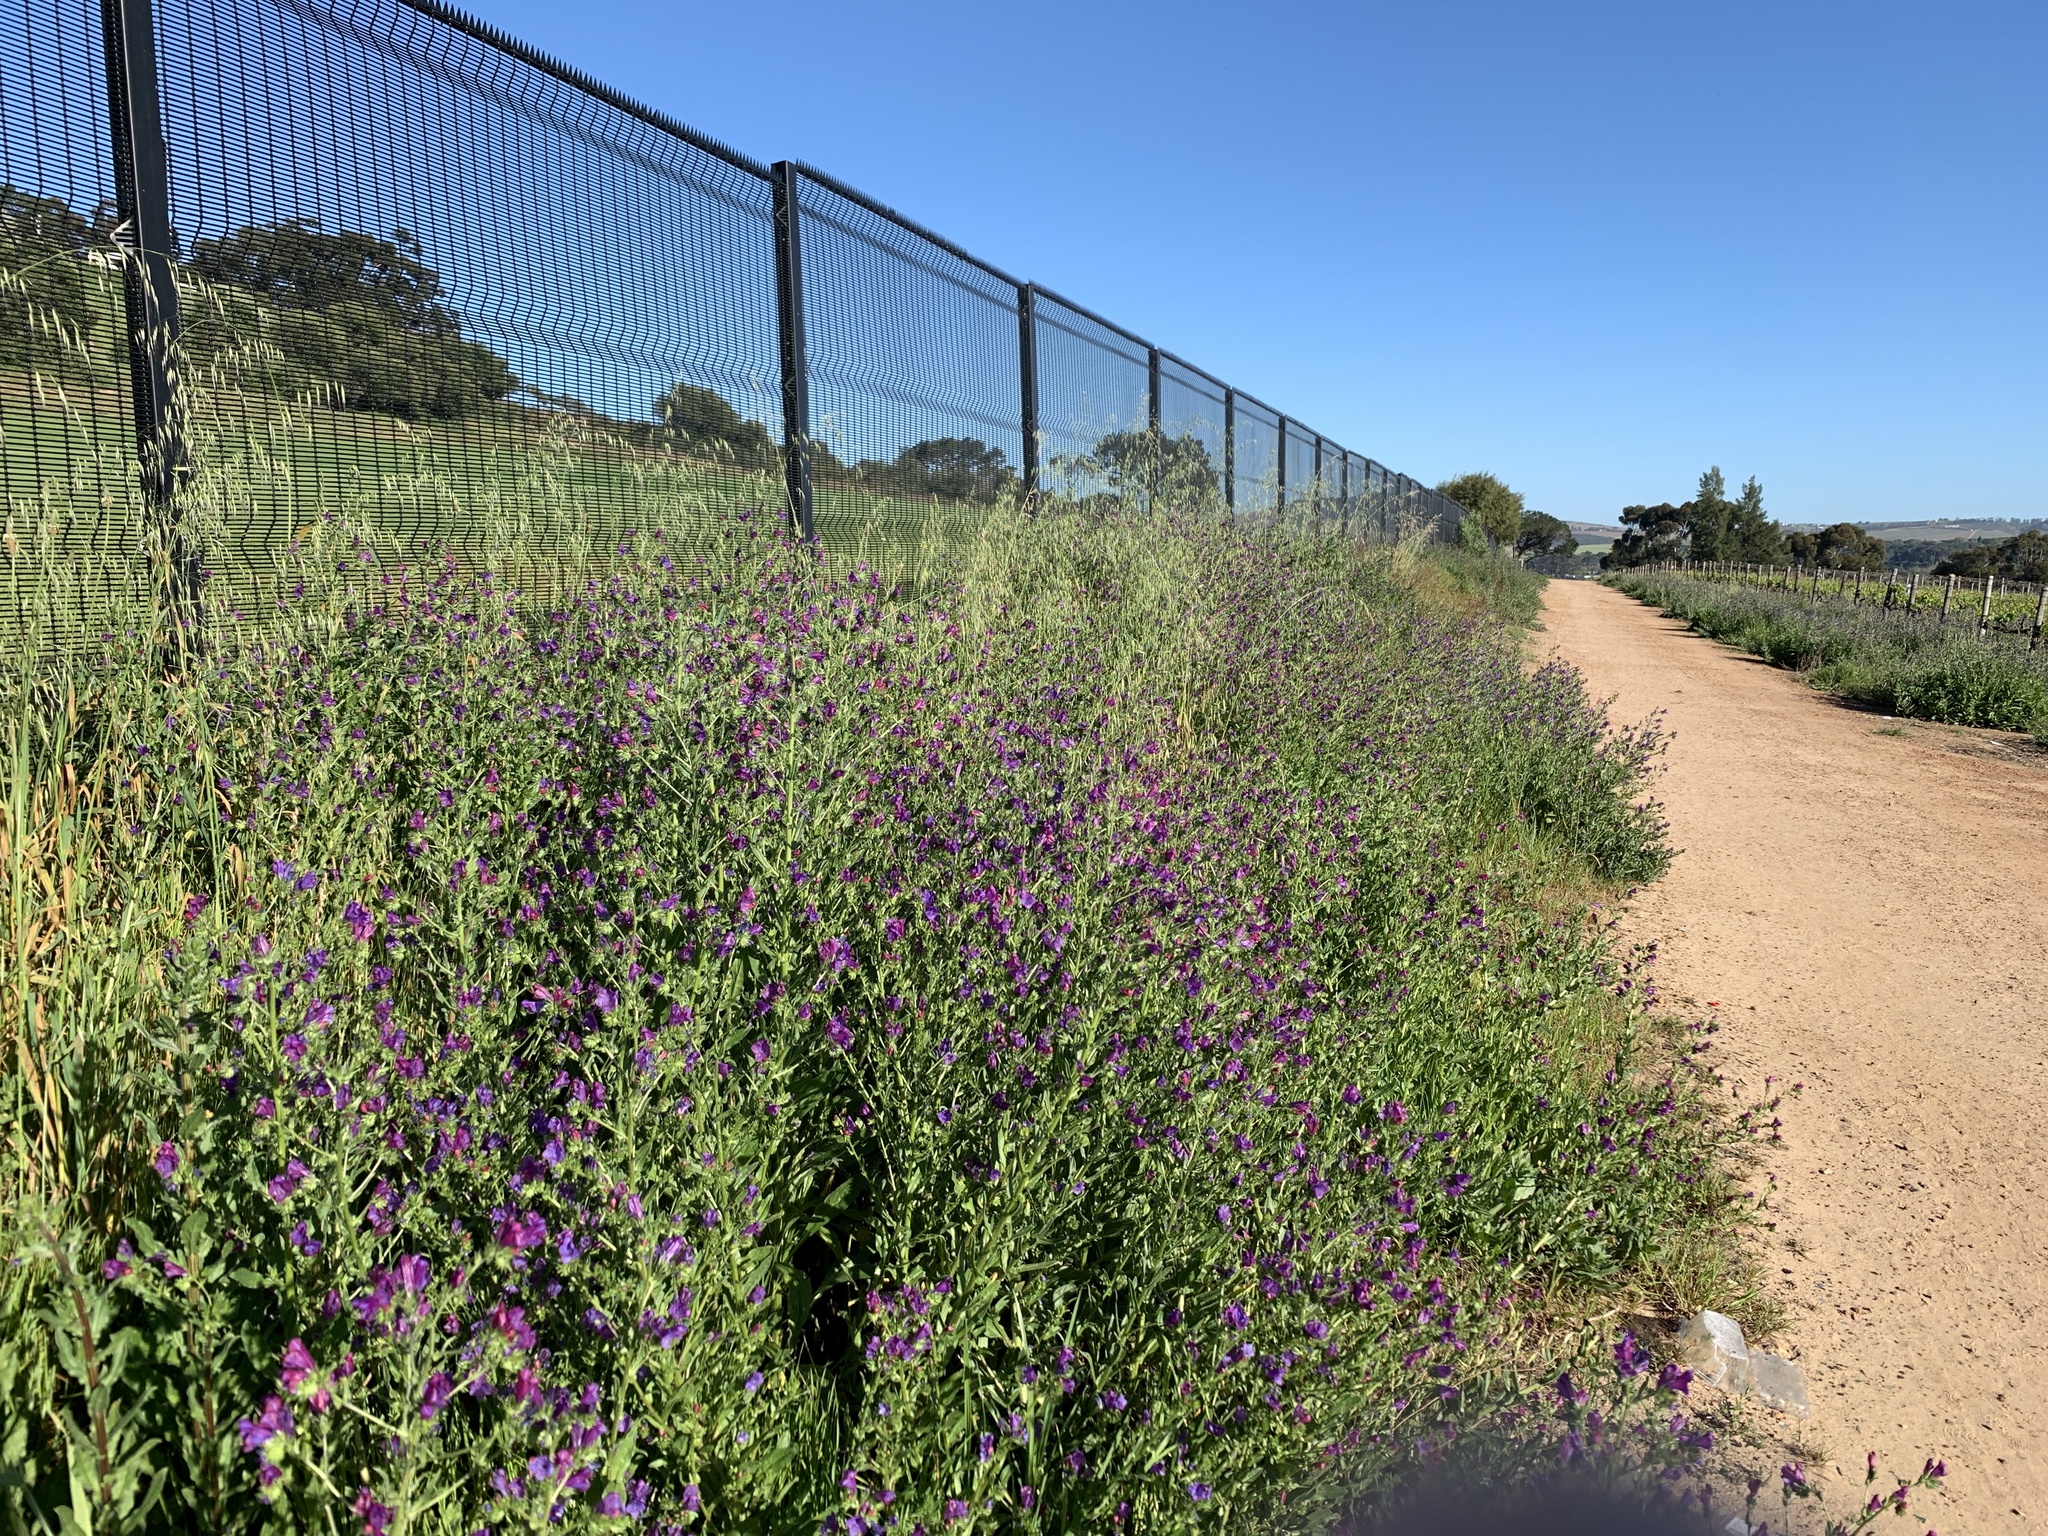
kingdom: Plantae
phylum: Tracheophyta
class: Magnoliopsida
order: Boraginales
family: Boraginaceae
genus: Echium
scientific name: Echium plantagineum
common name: Purple viper's-bugloss
